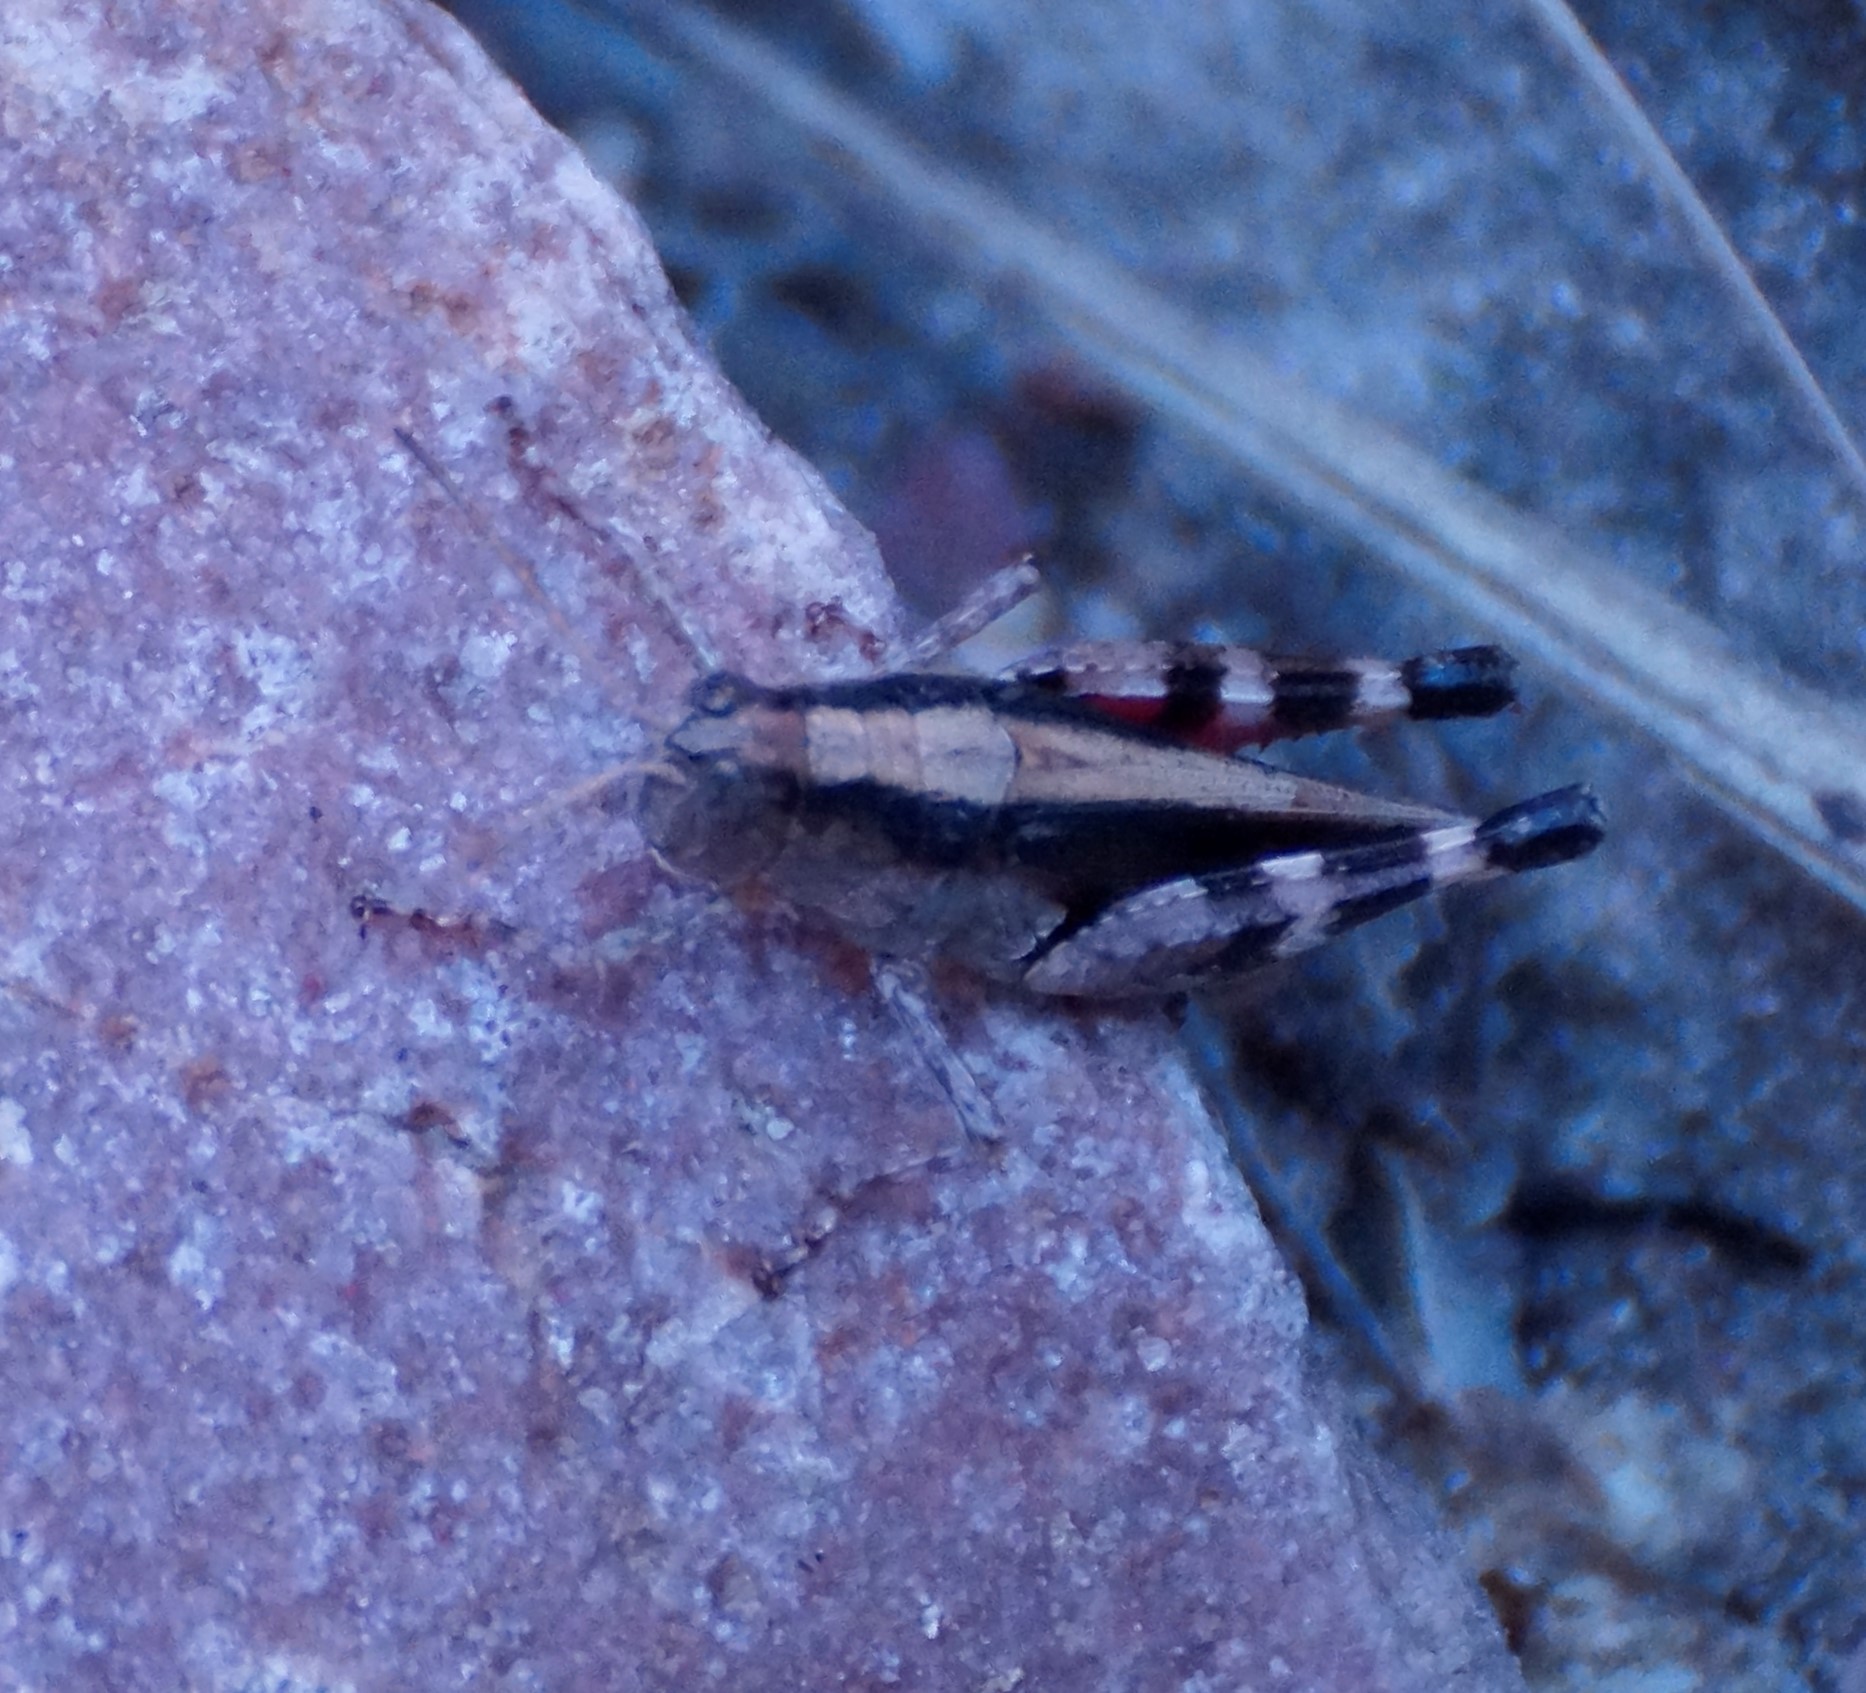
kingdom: Animalia
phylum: Arthropoda
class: Insecta
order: Orthoptera
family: Acrididae
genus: Terpillaria
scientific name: Terpillaria pulchra
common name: Pretty terpillaria
